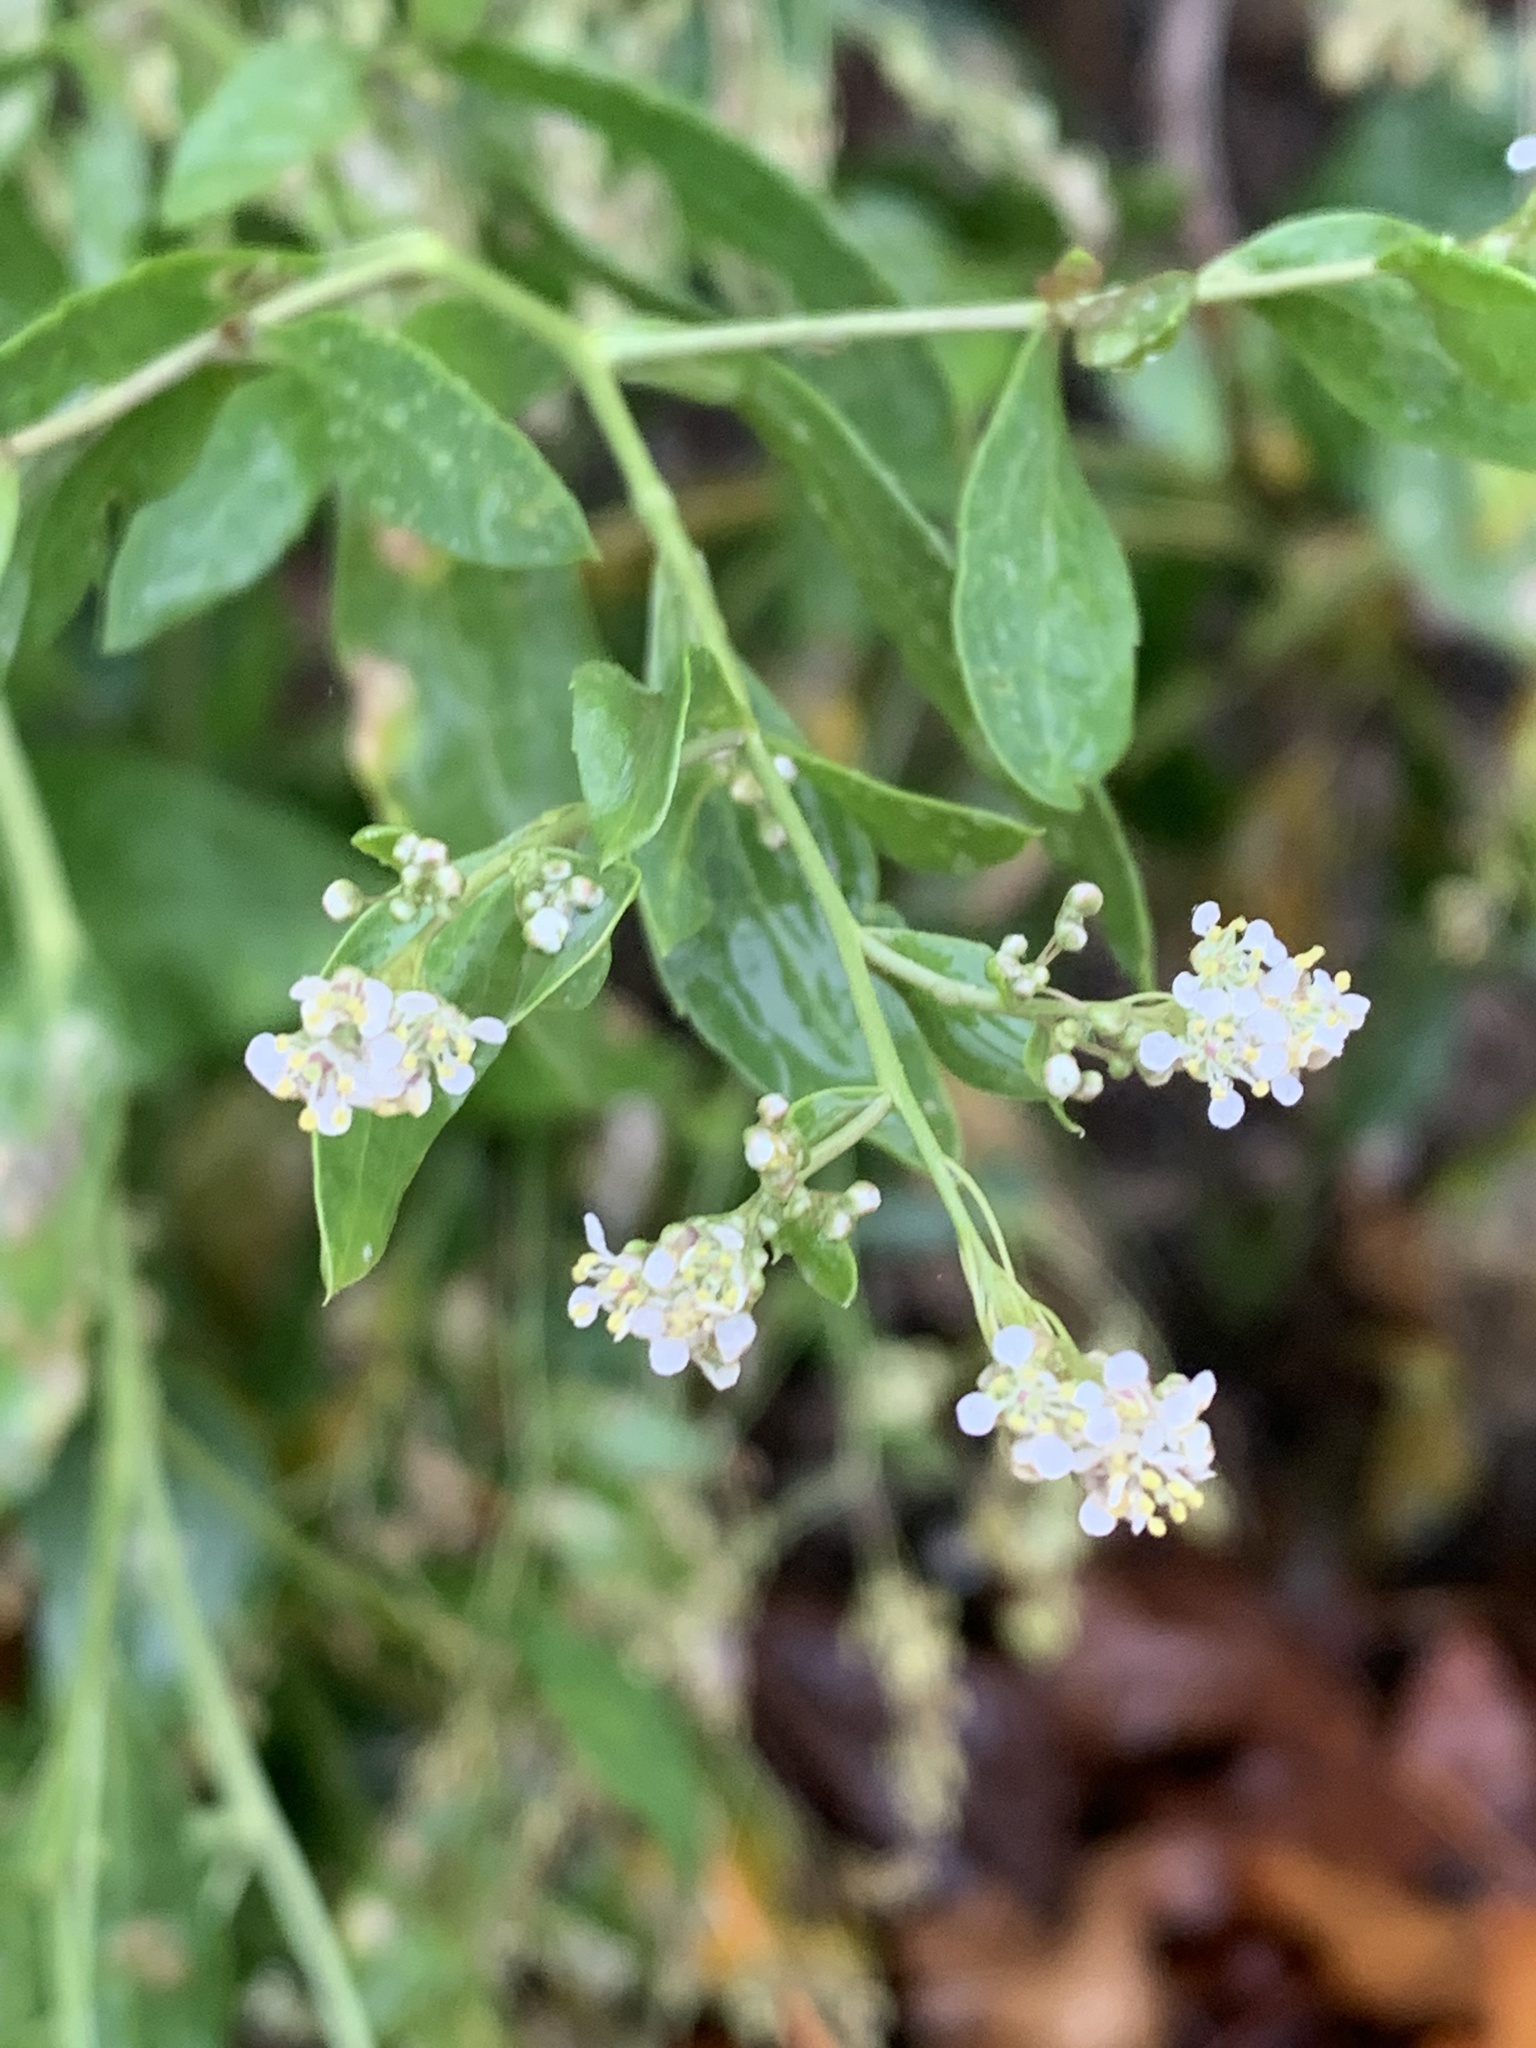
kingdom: Plantae
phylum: Tracheophyta
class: Magnoliopsida
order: Brassicales
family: Brassicaceae
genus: Lepidium
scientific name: Lepidium latifolium
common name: Dittander
